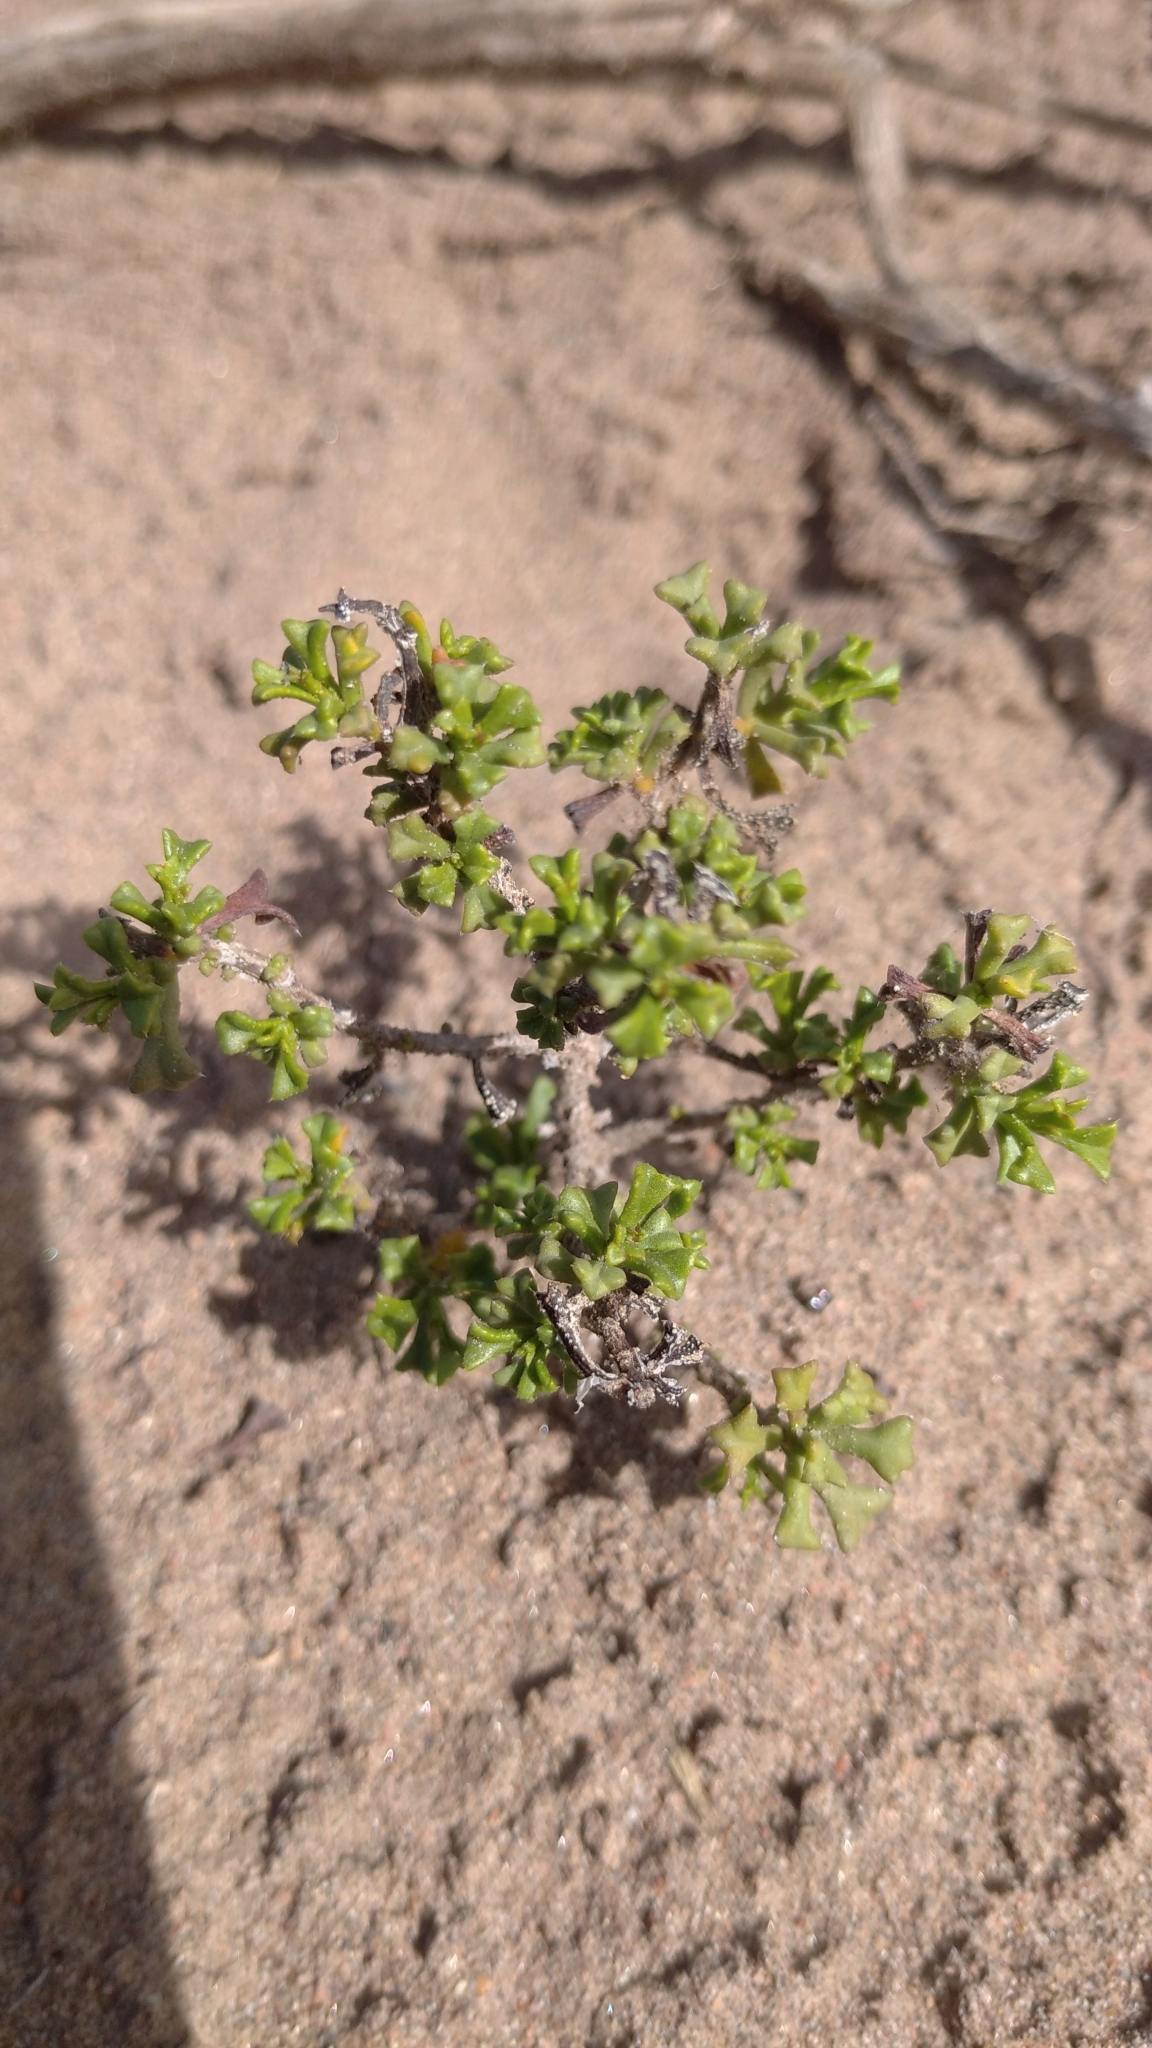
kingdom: Plantae
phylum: Tracheophyta
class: Magnoliopsida
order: Boraginales
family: Ehretiaceae
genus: Ehretia
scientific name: Ehretia cortesia
